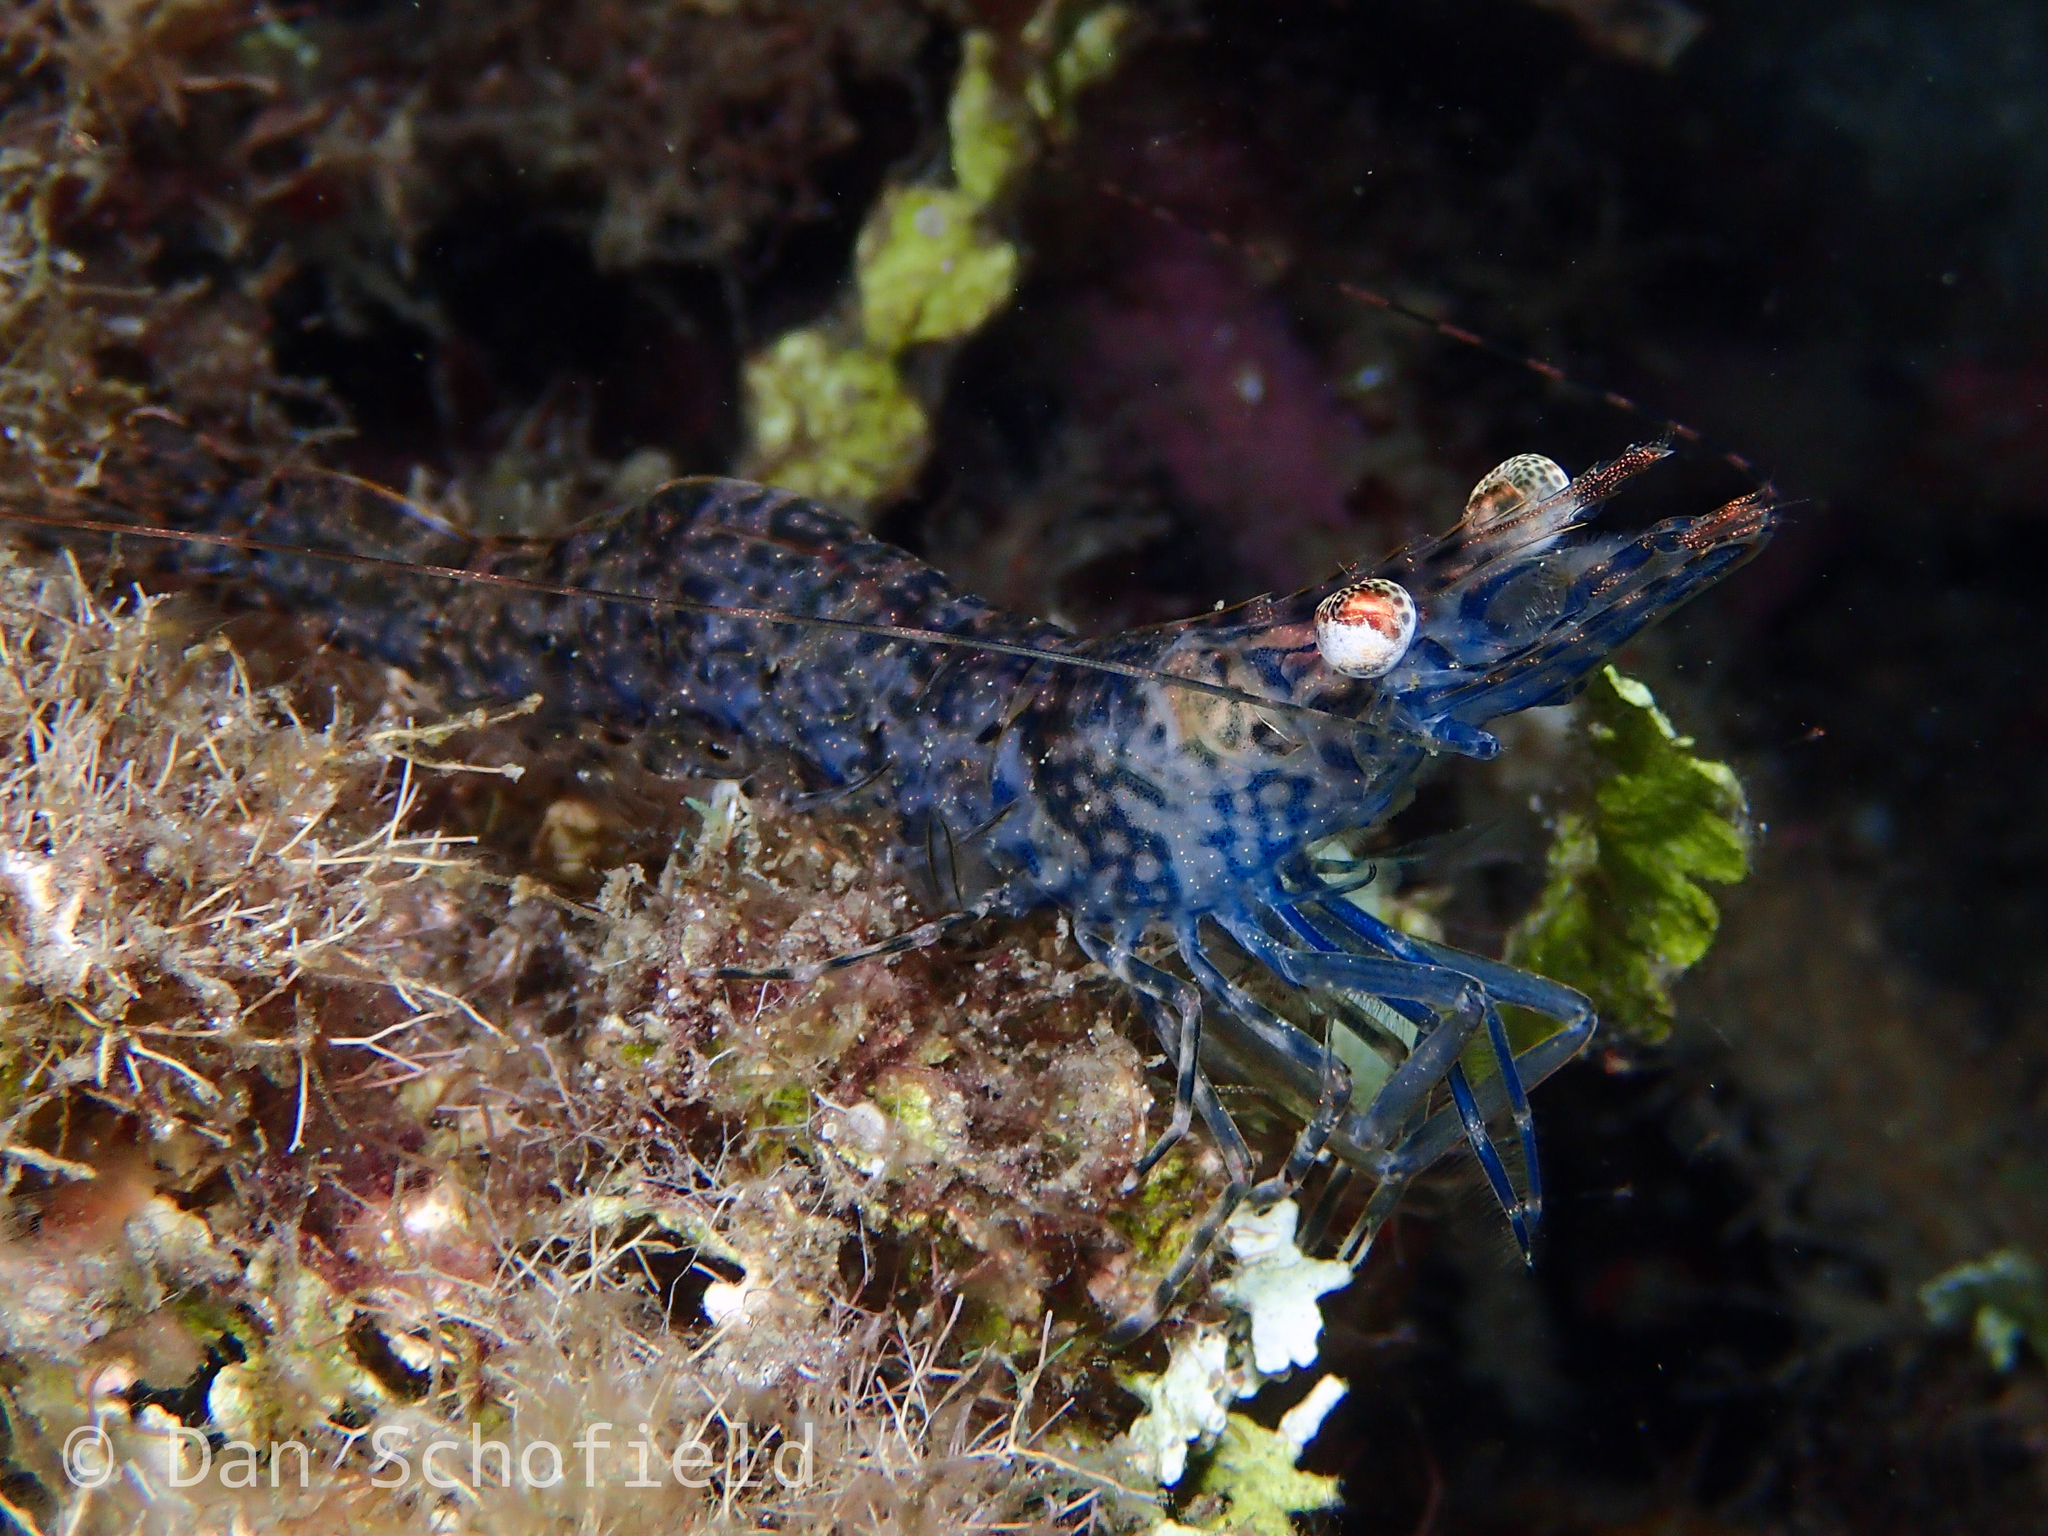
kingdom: Animalia
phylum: Arthropoda
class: Malacostraca
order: Decapoda
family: Penaeidae
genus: Heteropenaeus
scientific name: Heteropenaeus longimanus
